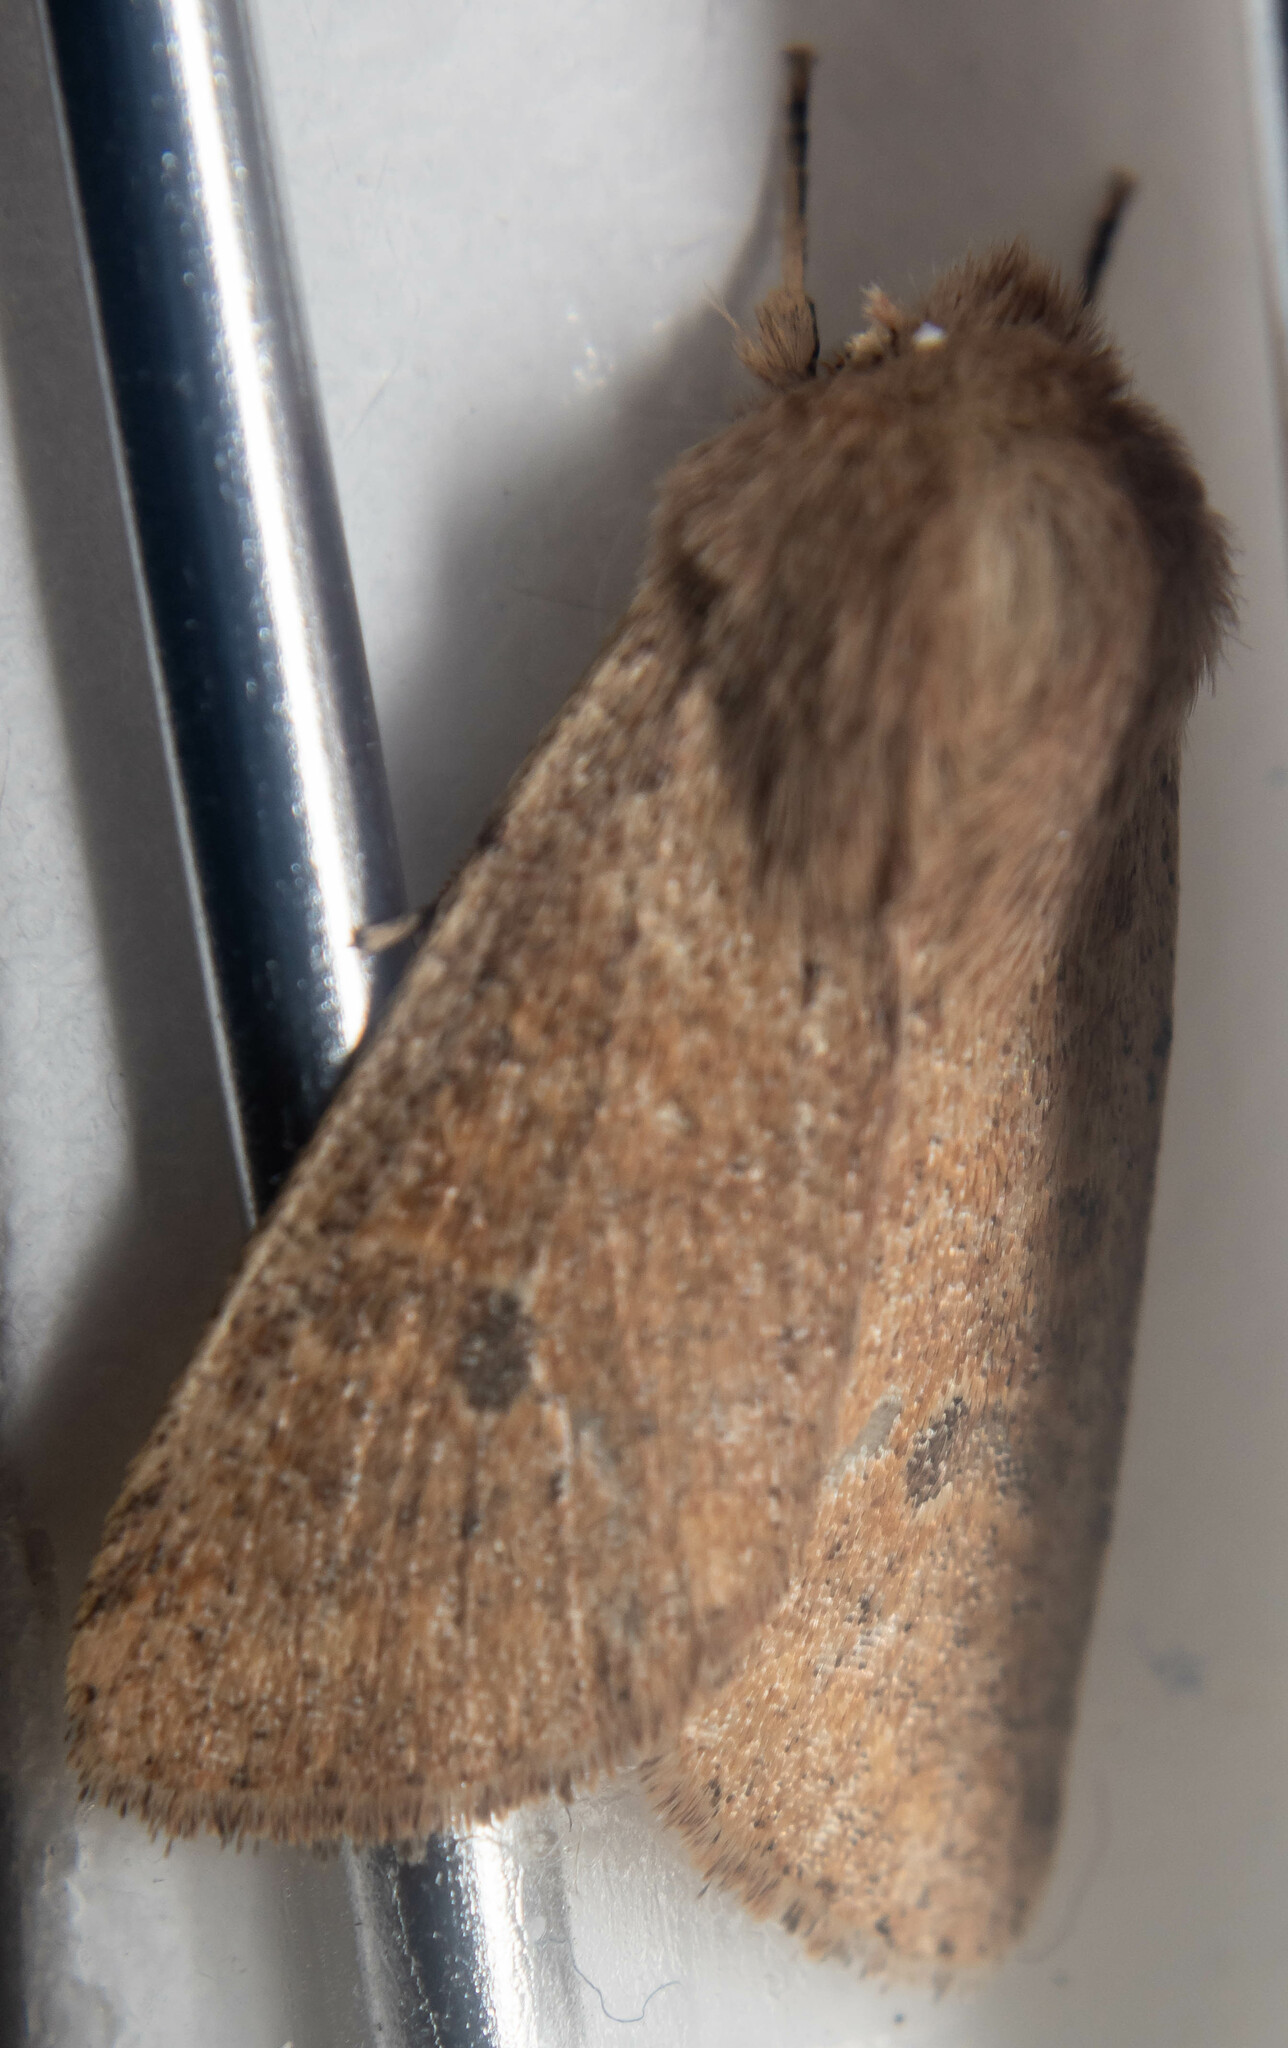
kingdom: Animalia
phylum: Arthropoda
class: Insecta
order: Lepidoptera
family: Noctuidae
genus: Orthosia
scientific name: Orthosia cruda
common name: Small quaker
